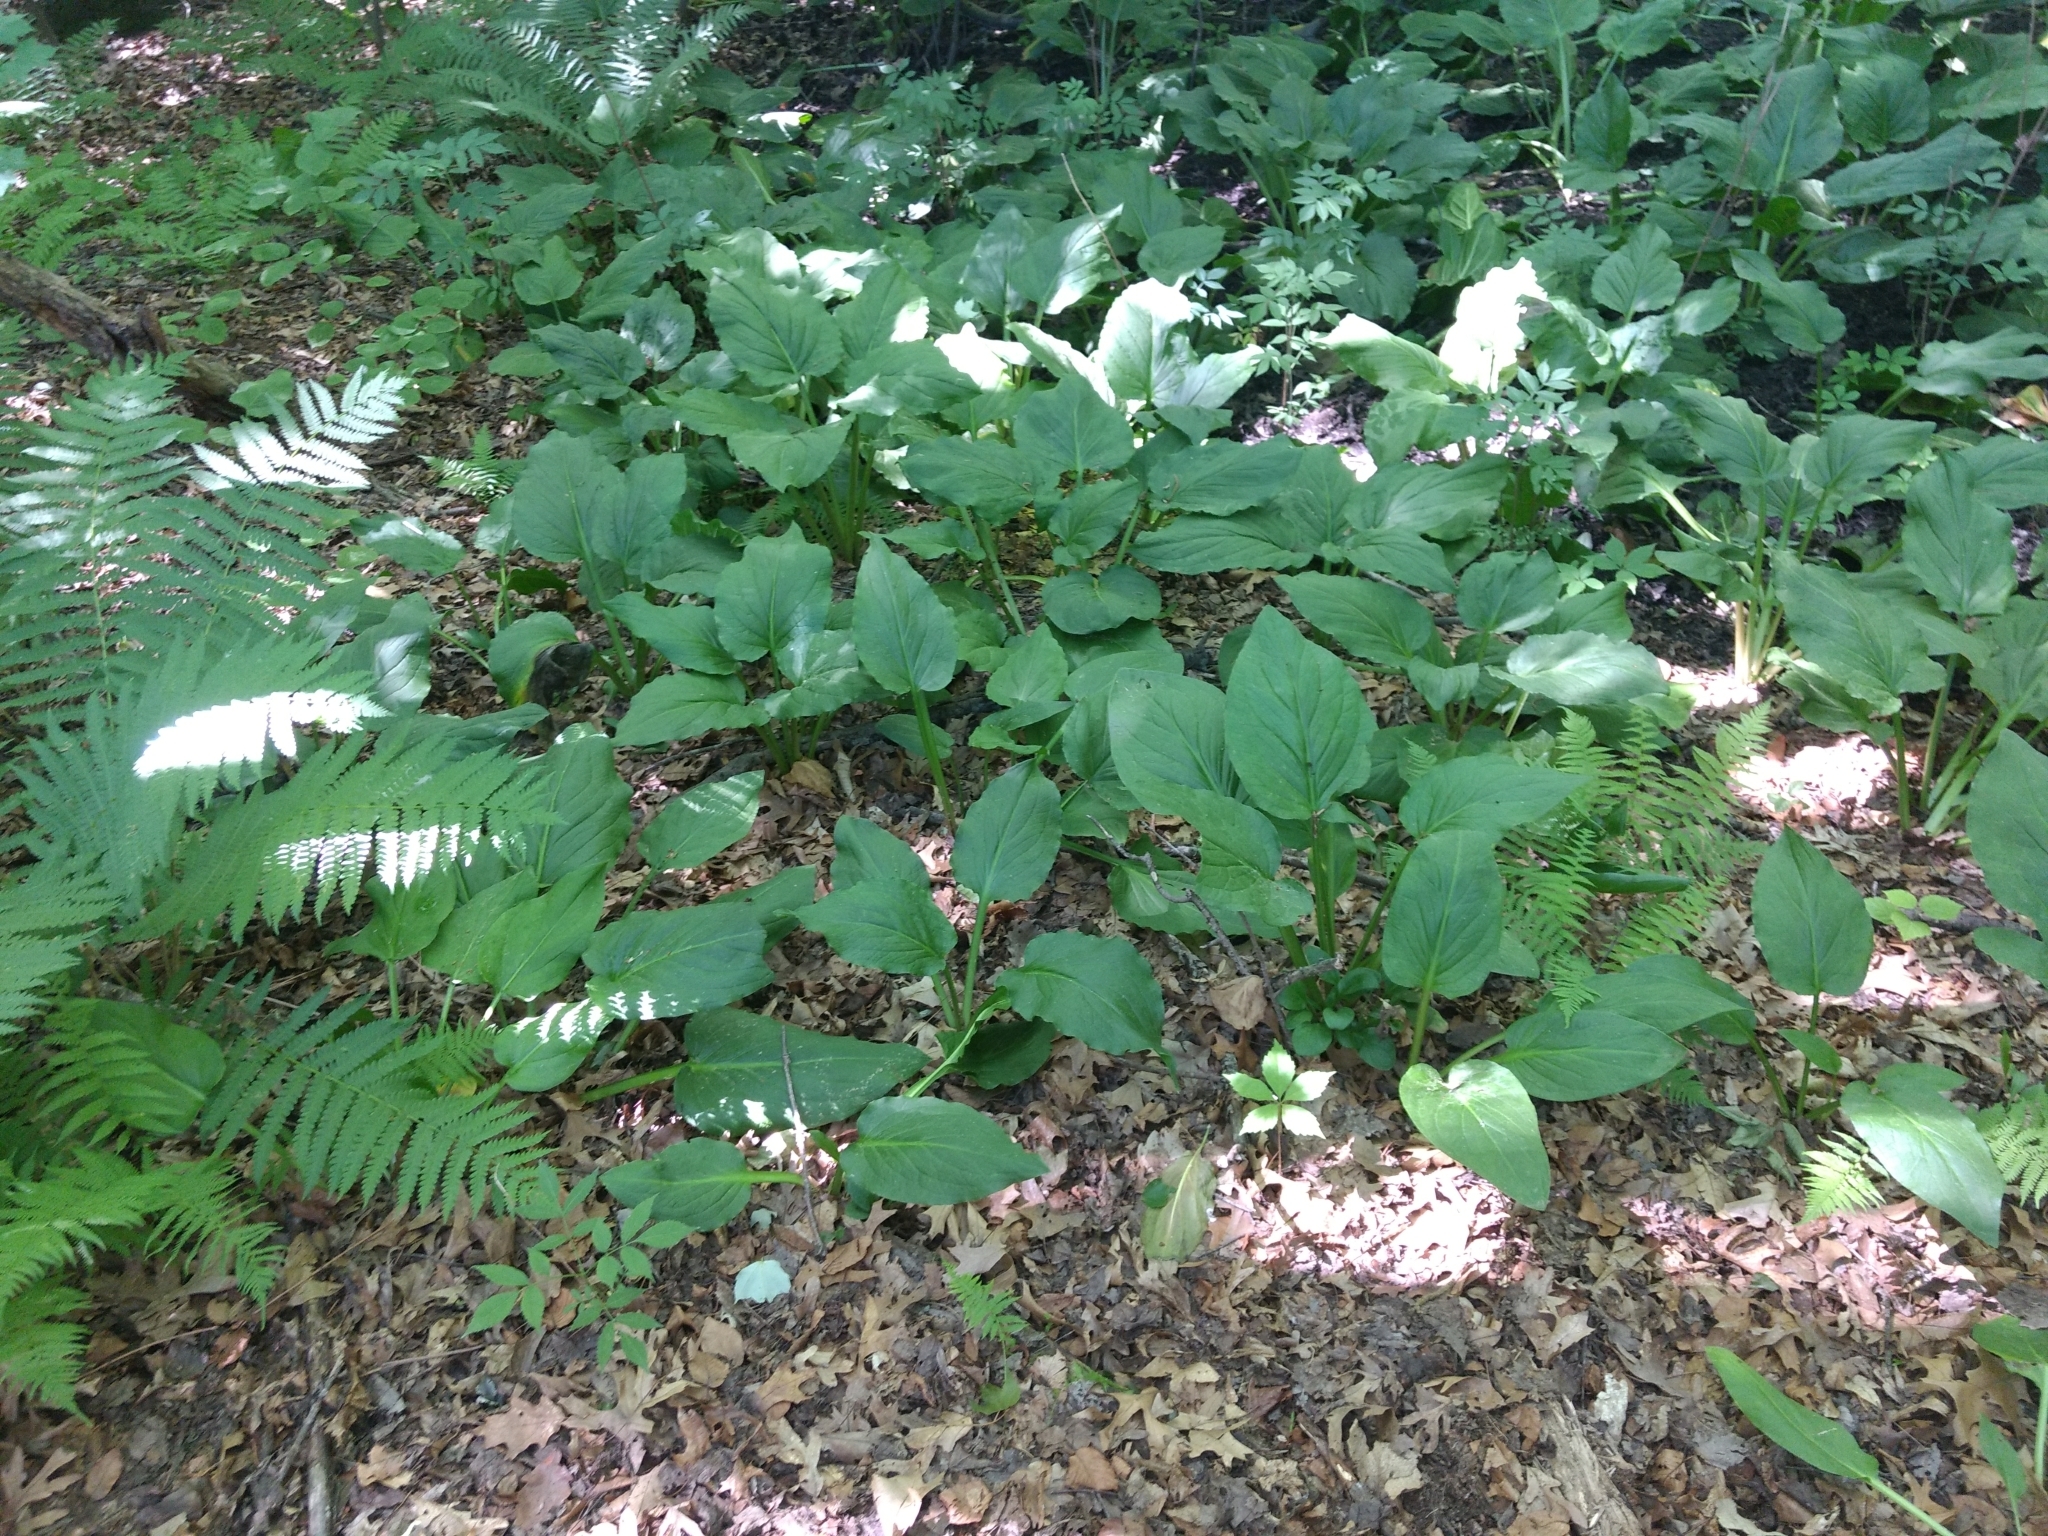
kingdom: Plantae
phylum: Tracheophyta
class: Liliopsida
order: Alismatales
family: Araceae
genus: Symplocarpus
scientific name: Symplocarpus foetidus
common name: Eastern skunk cabbage
